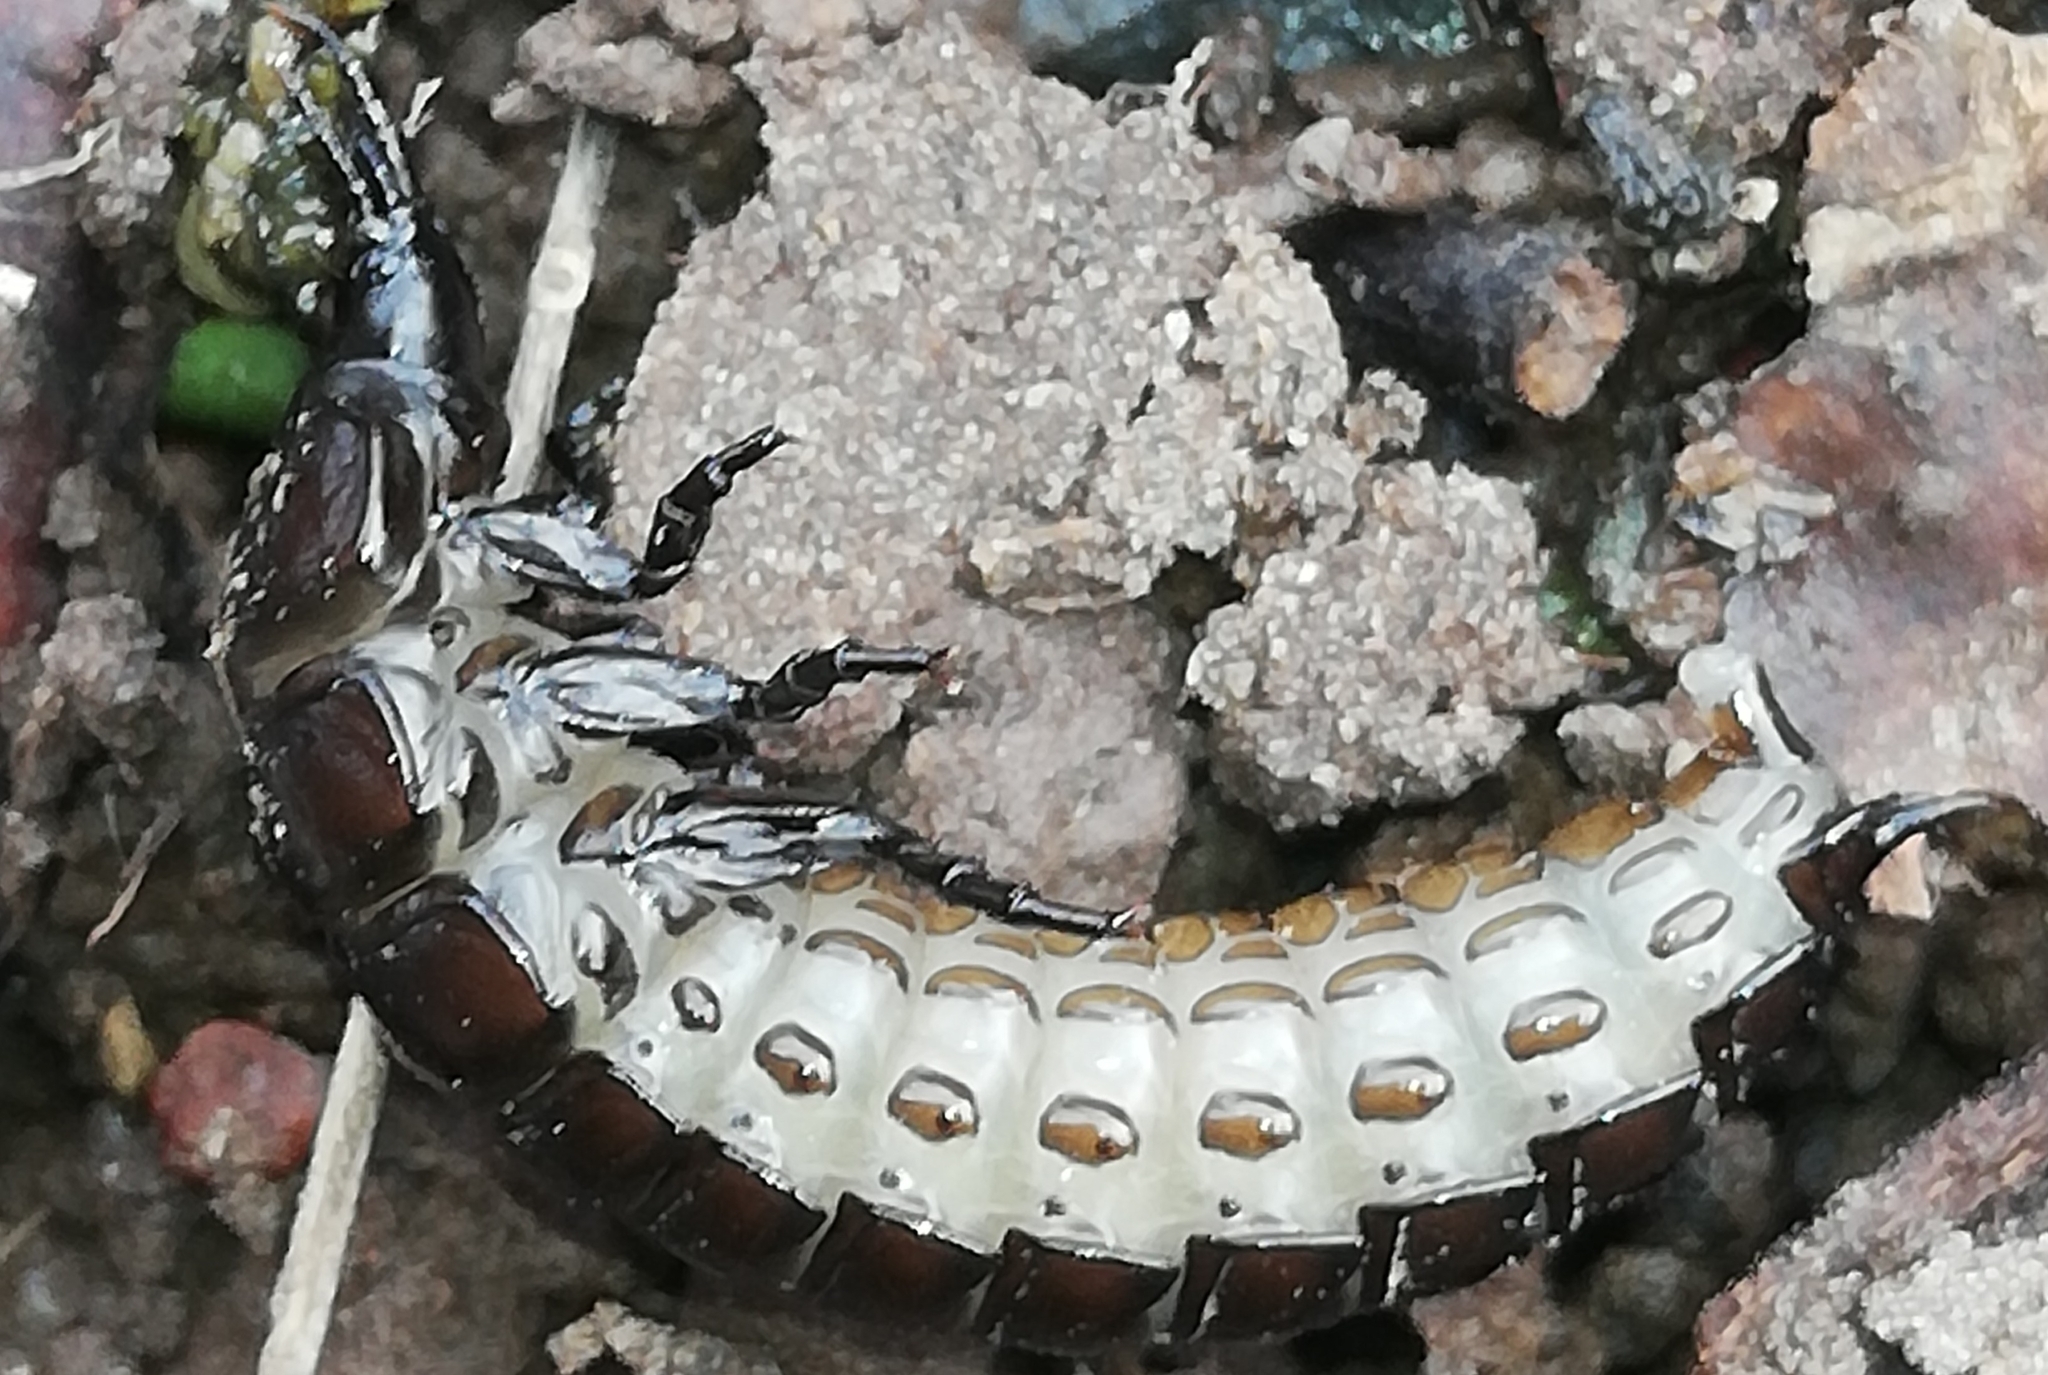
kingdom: Animalia
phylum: Arthropoda
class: Insecta
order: Coleoptera
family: Carabidae
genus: Carabus
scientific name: Carabus
